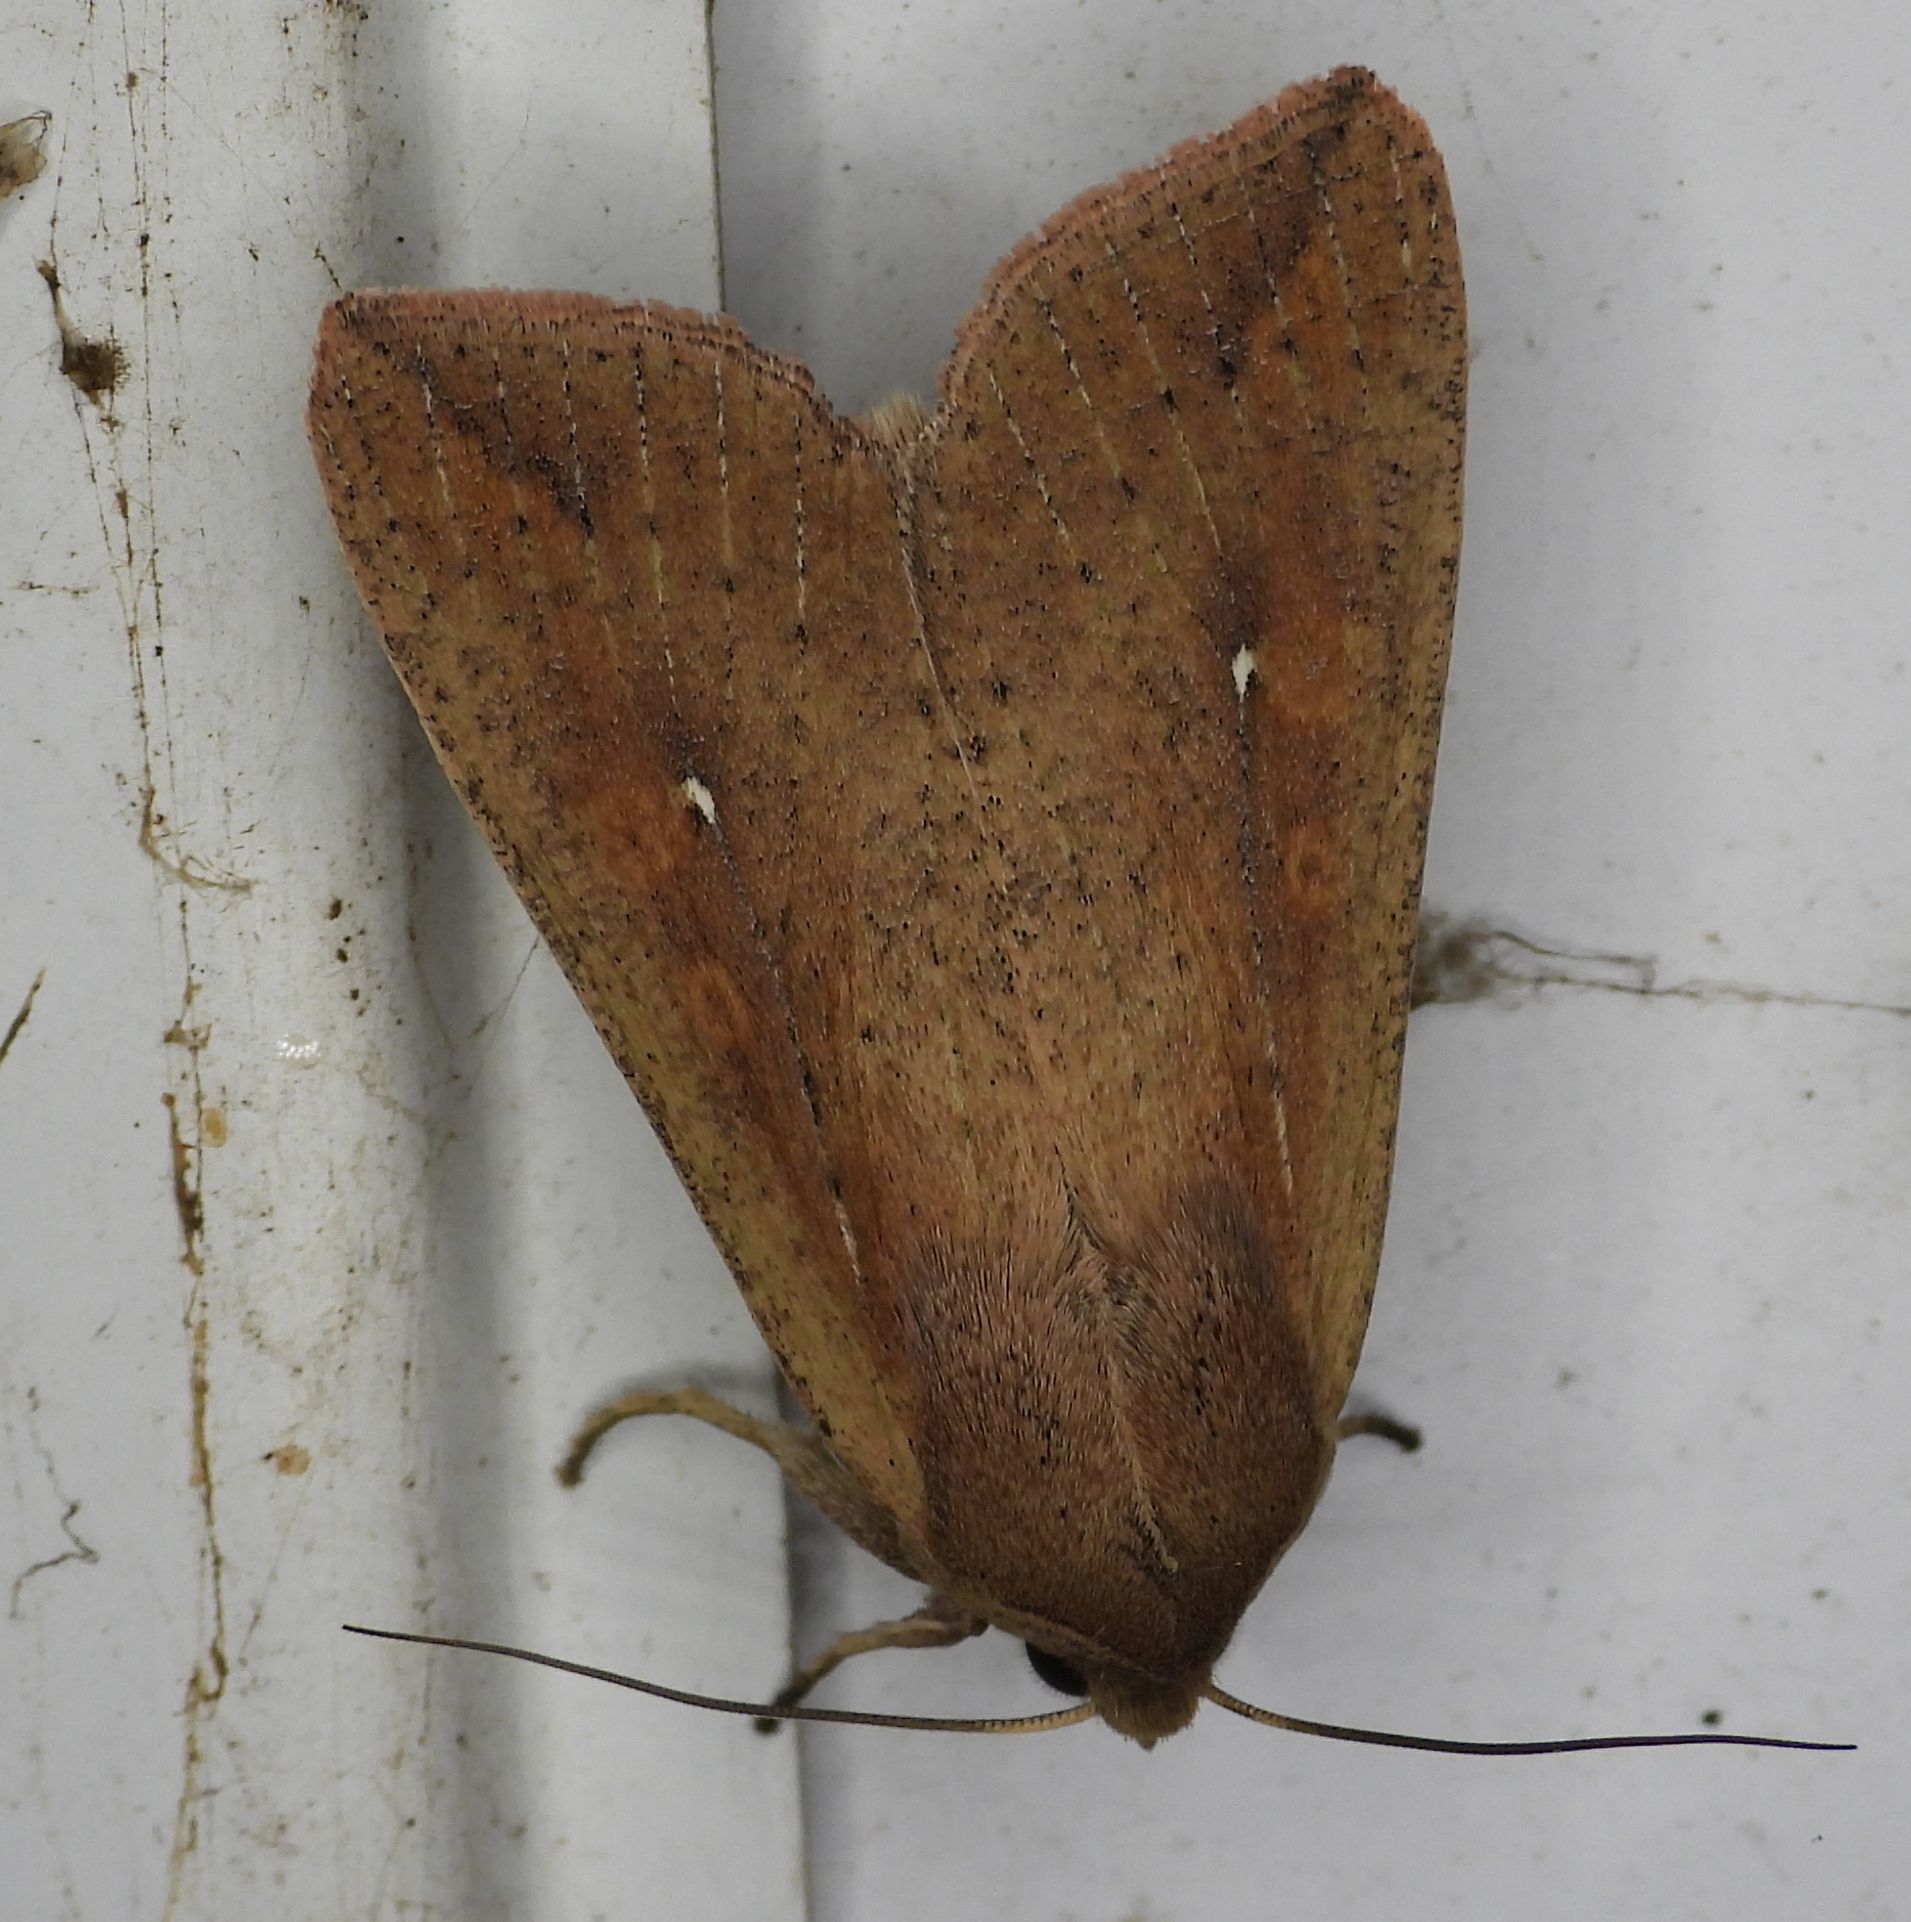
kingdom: Animalia
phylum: Arthropoda
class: Insecta
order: Lepidoptera
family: Noctuidae
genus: Mythimna
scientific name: Mythimna unipuncta
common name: White-speck
